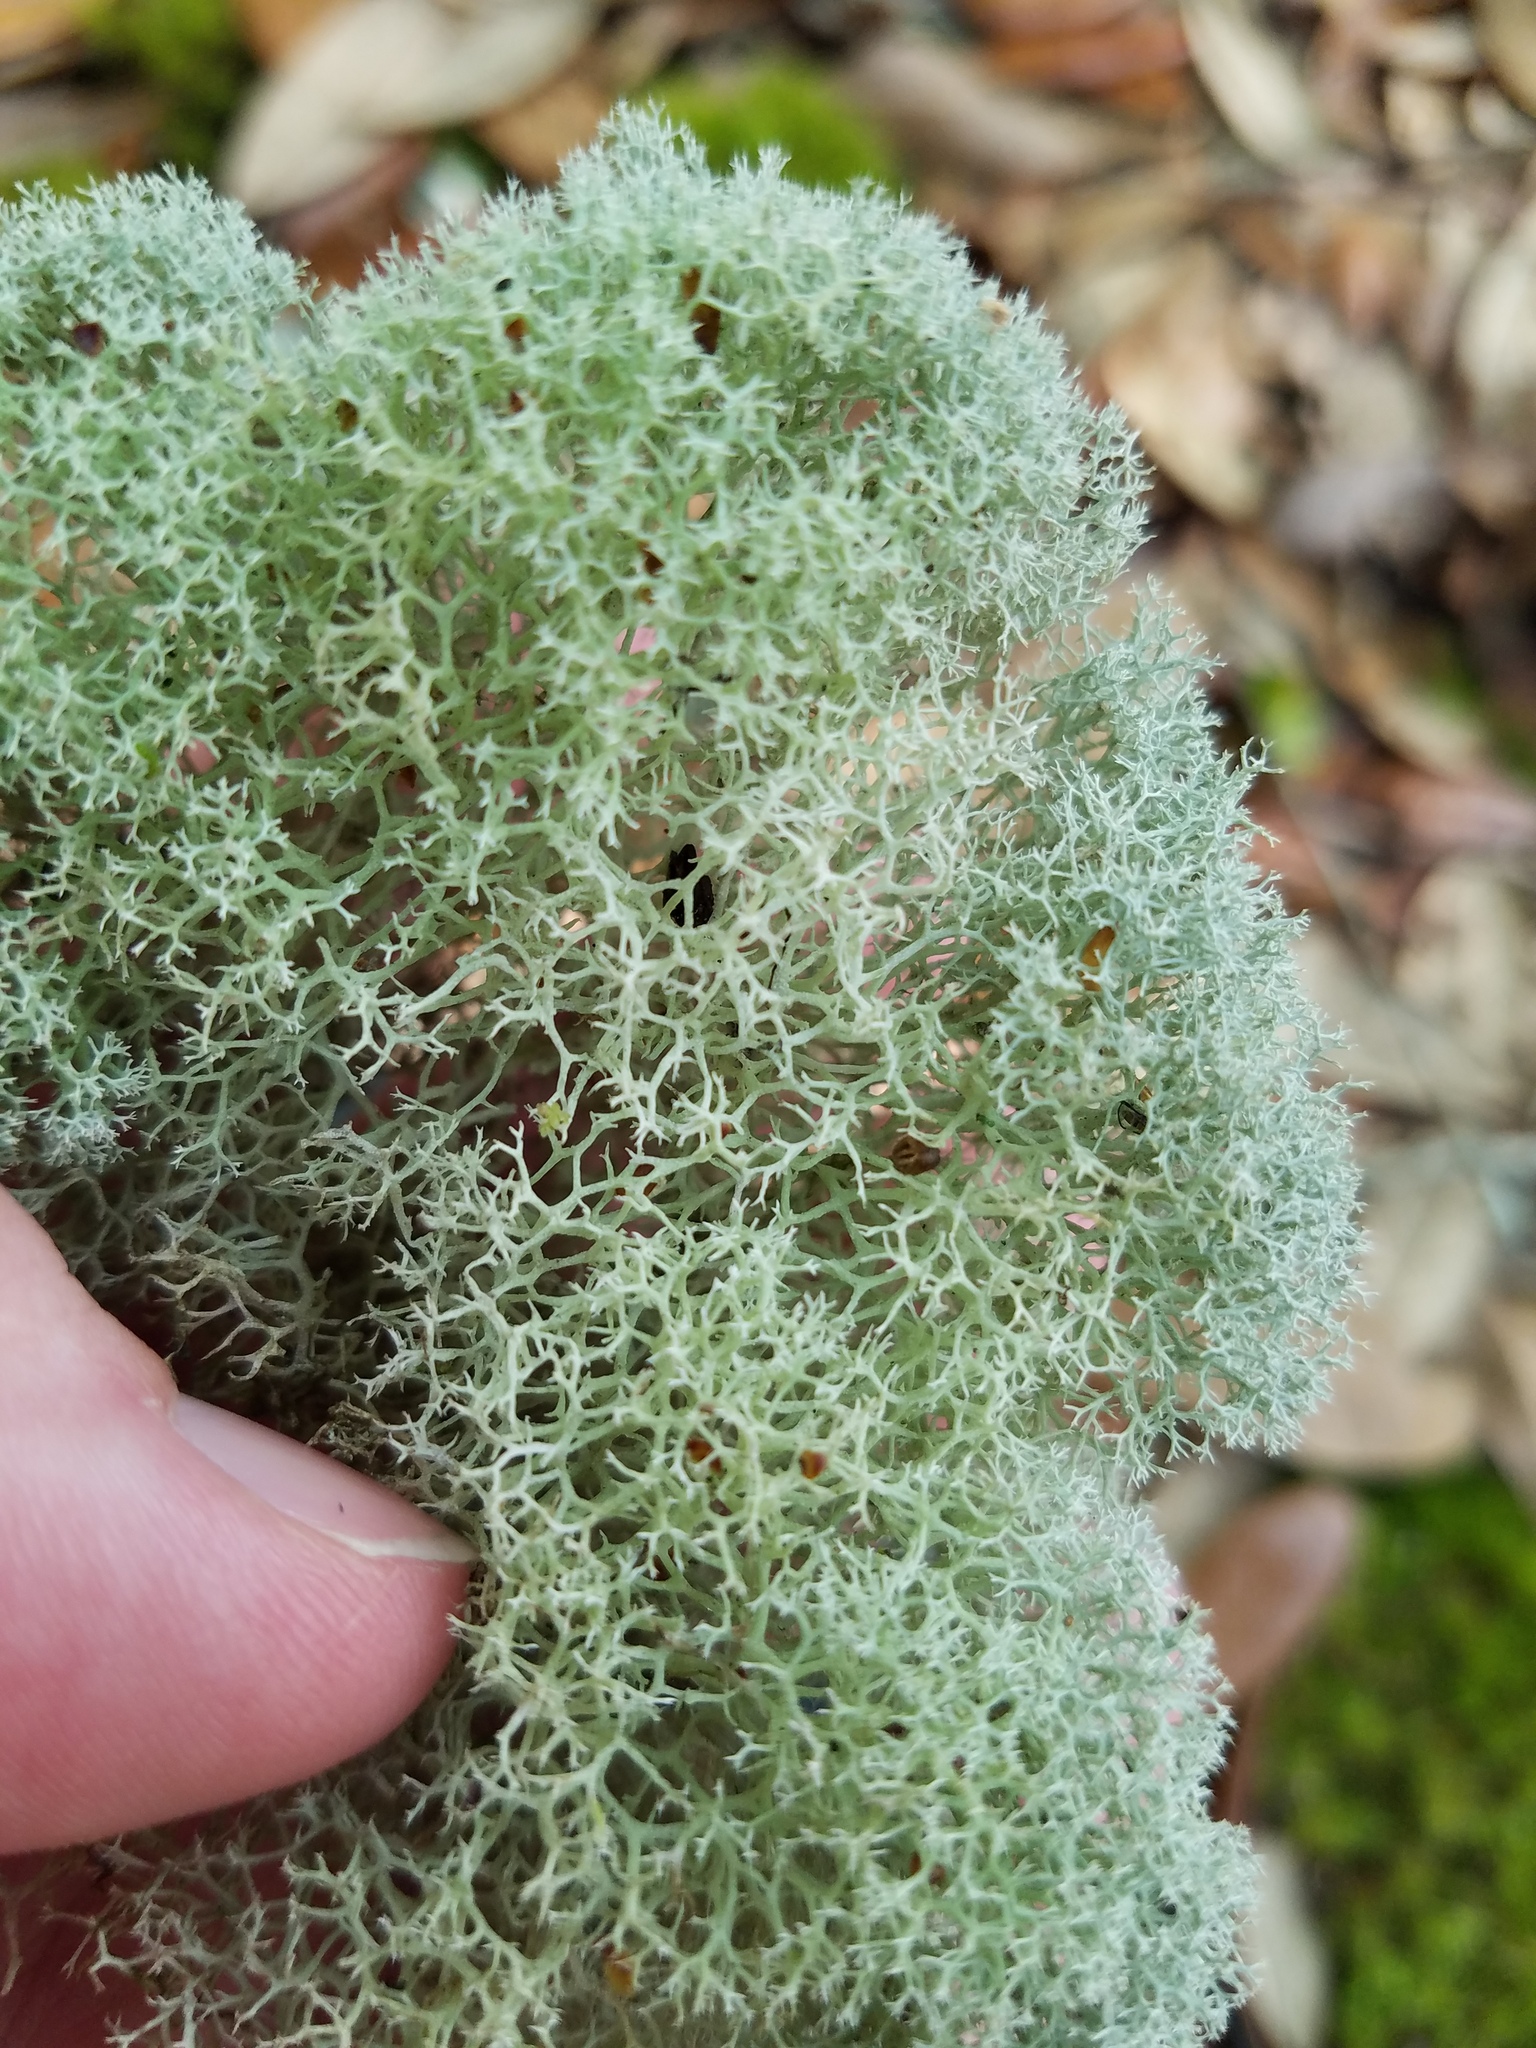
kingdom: Fungi
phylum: Ascomycota
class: Lecanoromycetes
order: Lecanorales
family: Cladoniaceae
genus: Cladonia
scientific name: Cladonia evansii
